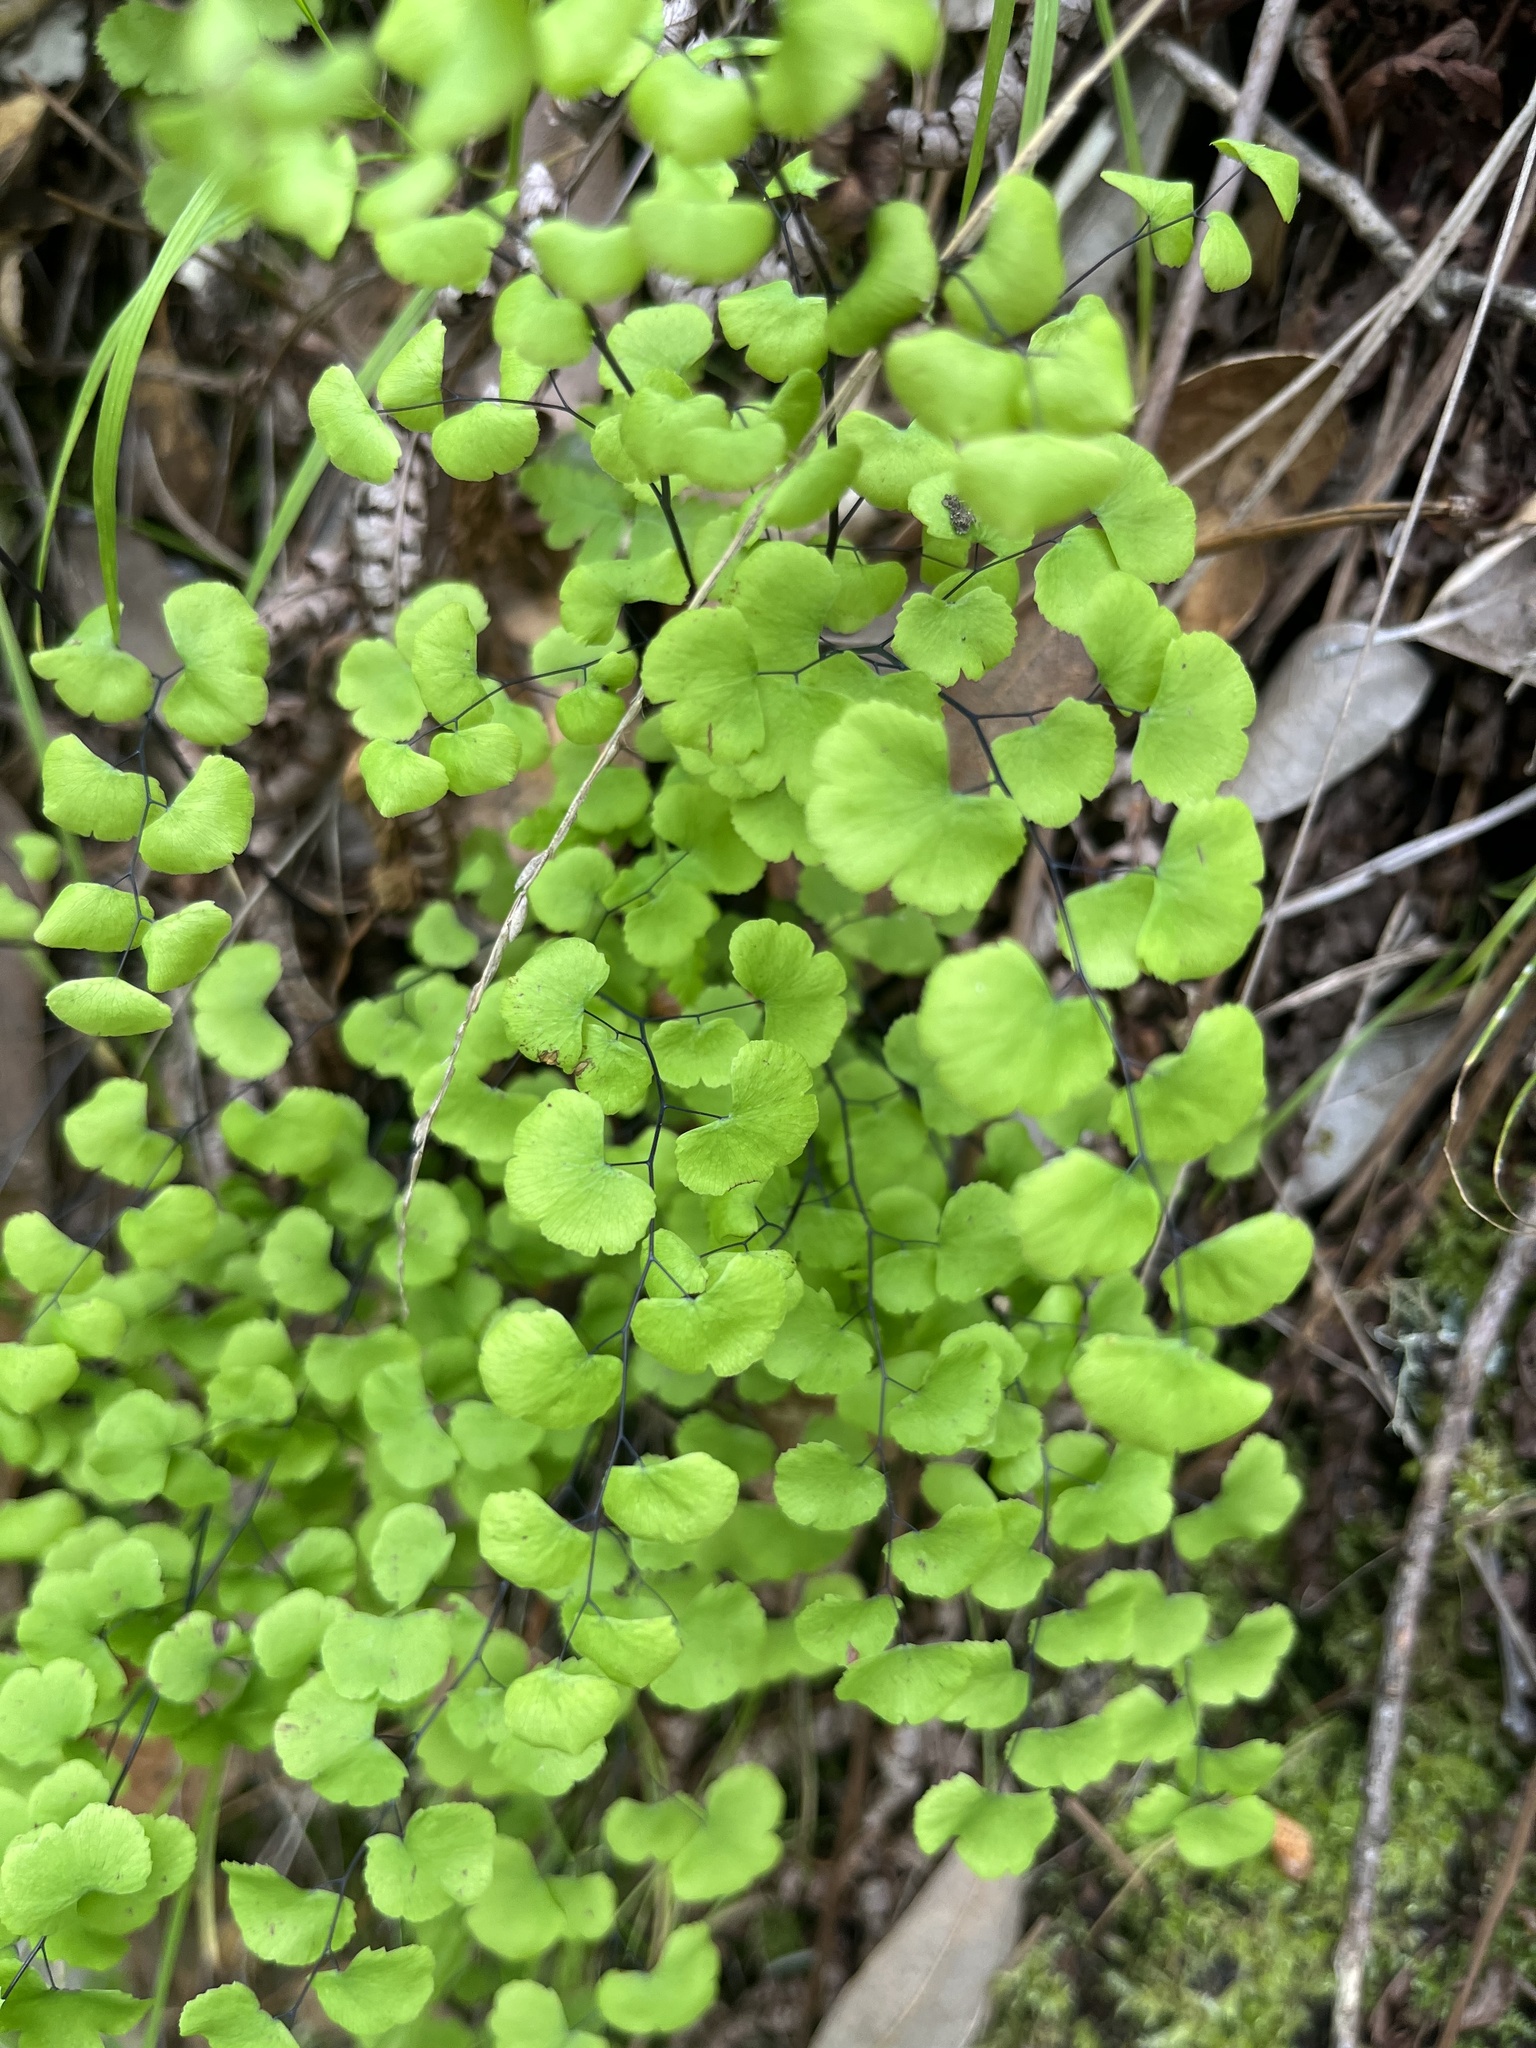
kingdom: Plantae
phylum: Tracheophyta
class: Polypodiopsida
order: Polypodiales
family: Pteridaceae
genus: Adiantum
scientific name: Adiantum jordanii
